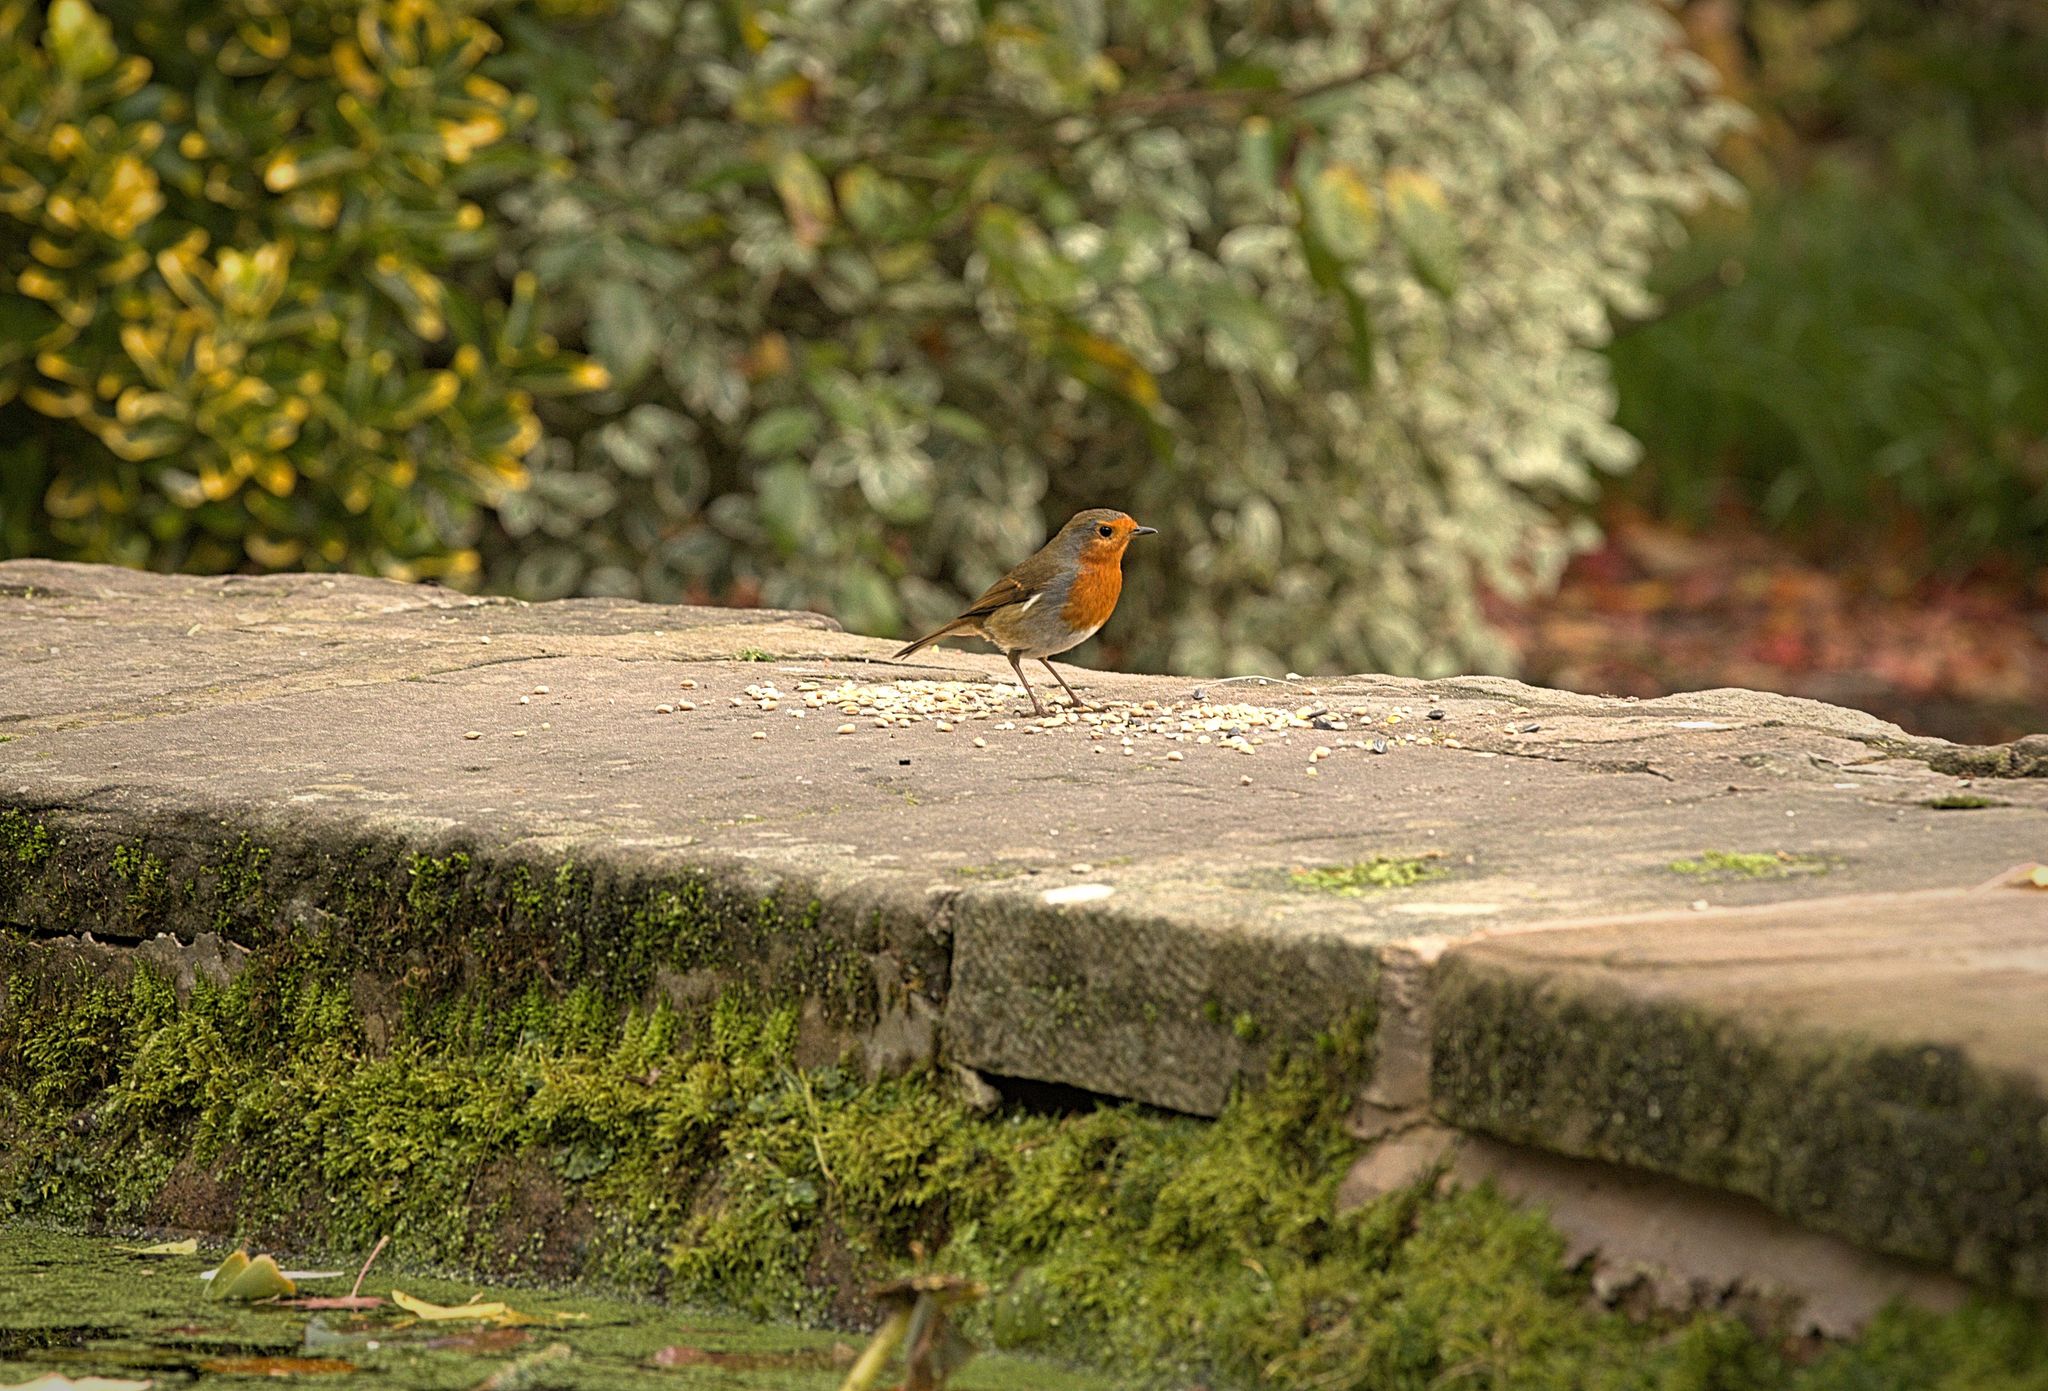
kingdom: Animalia
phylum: Chordata
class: Aves
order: Passeriformes
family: Muscicapidae
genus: Erithacus
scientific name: Erithacus rubecula
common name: European robin
